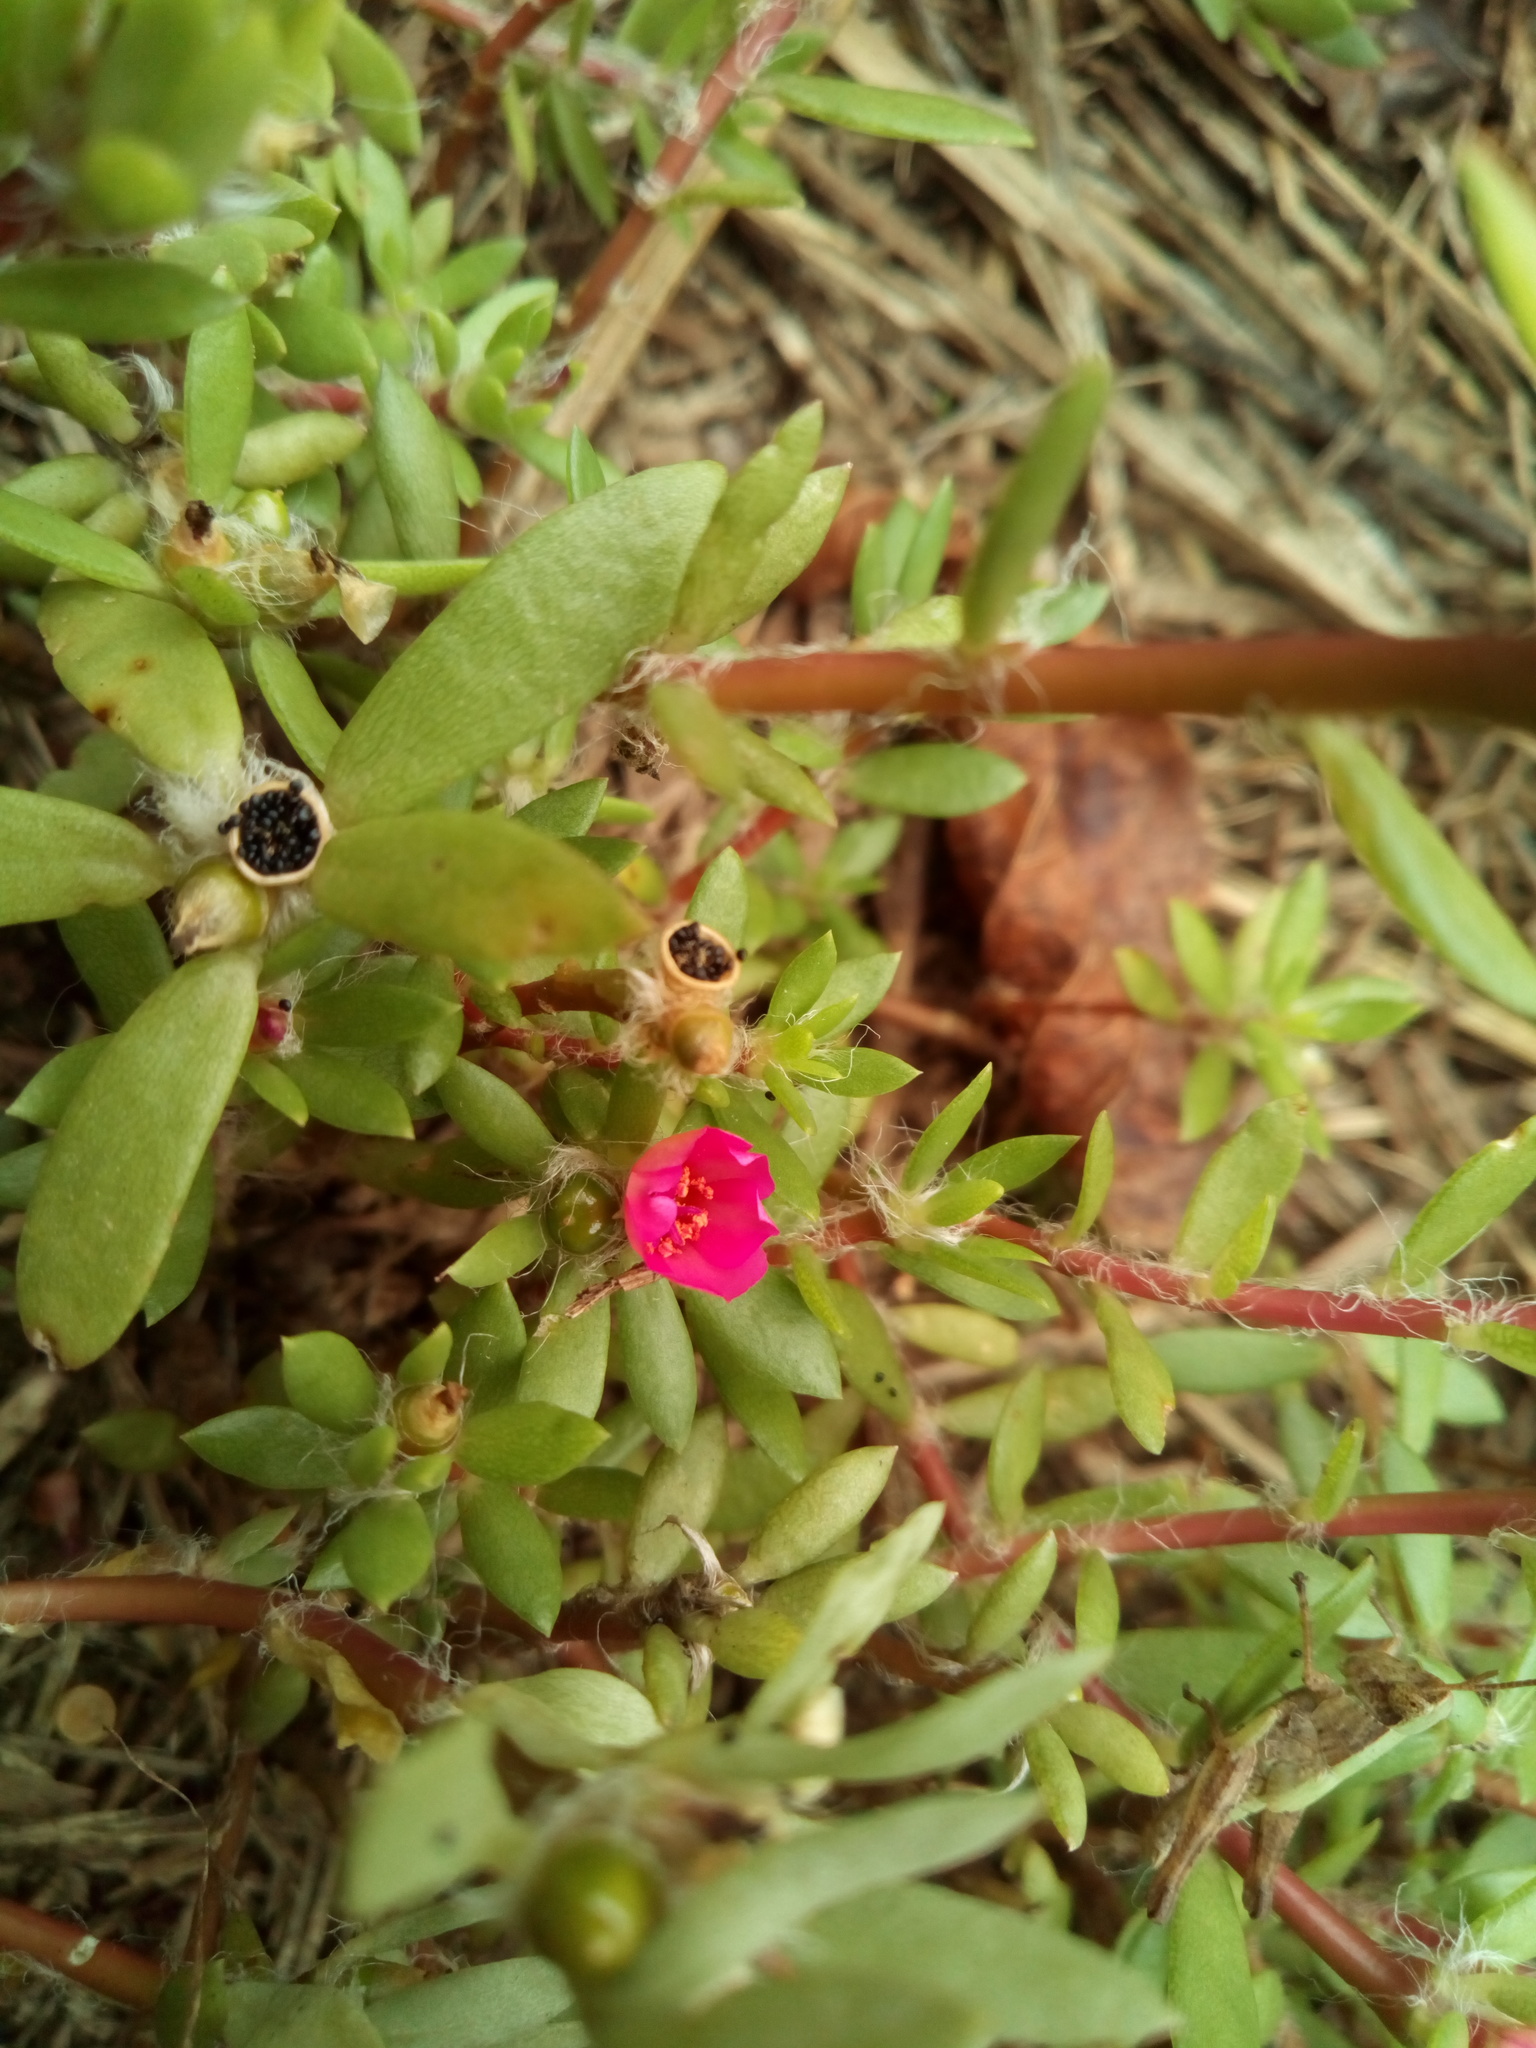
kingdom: Plantae
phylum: Tracheophyta
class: Magnoliopsida
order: Caryophyllales
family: Portulacaceae
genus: Portulaca
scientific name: Portulaca amilis
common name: Paraguayan purslane
